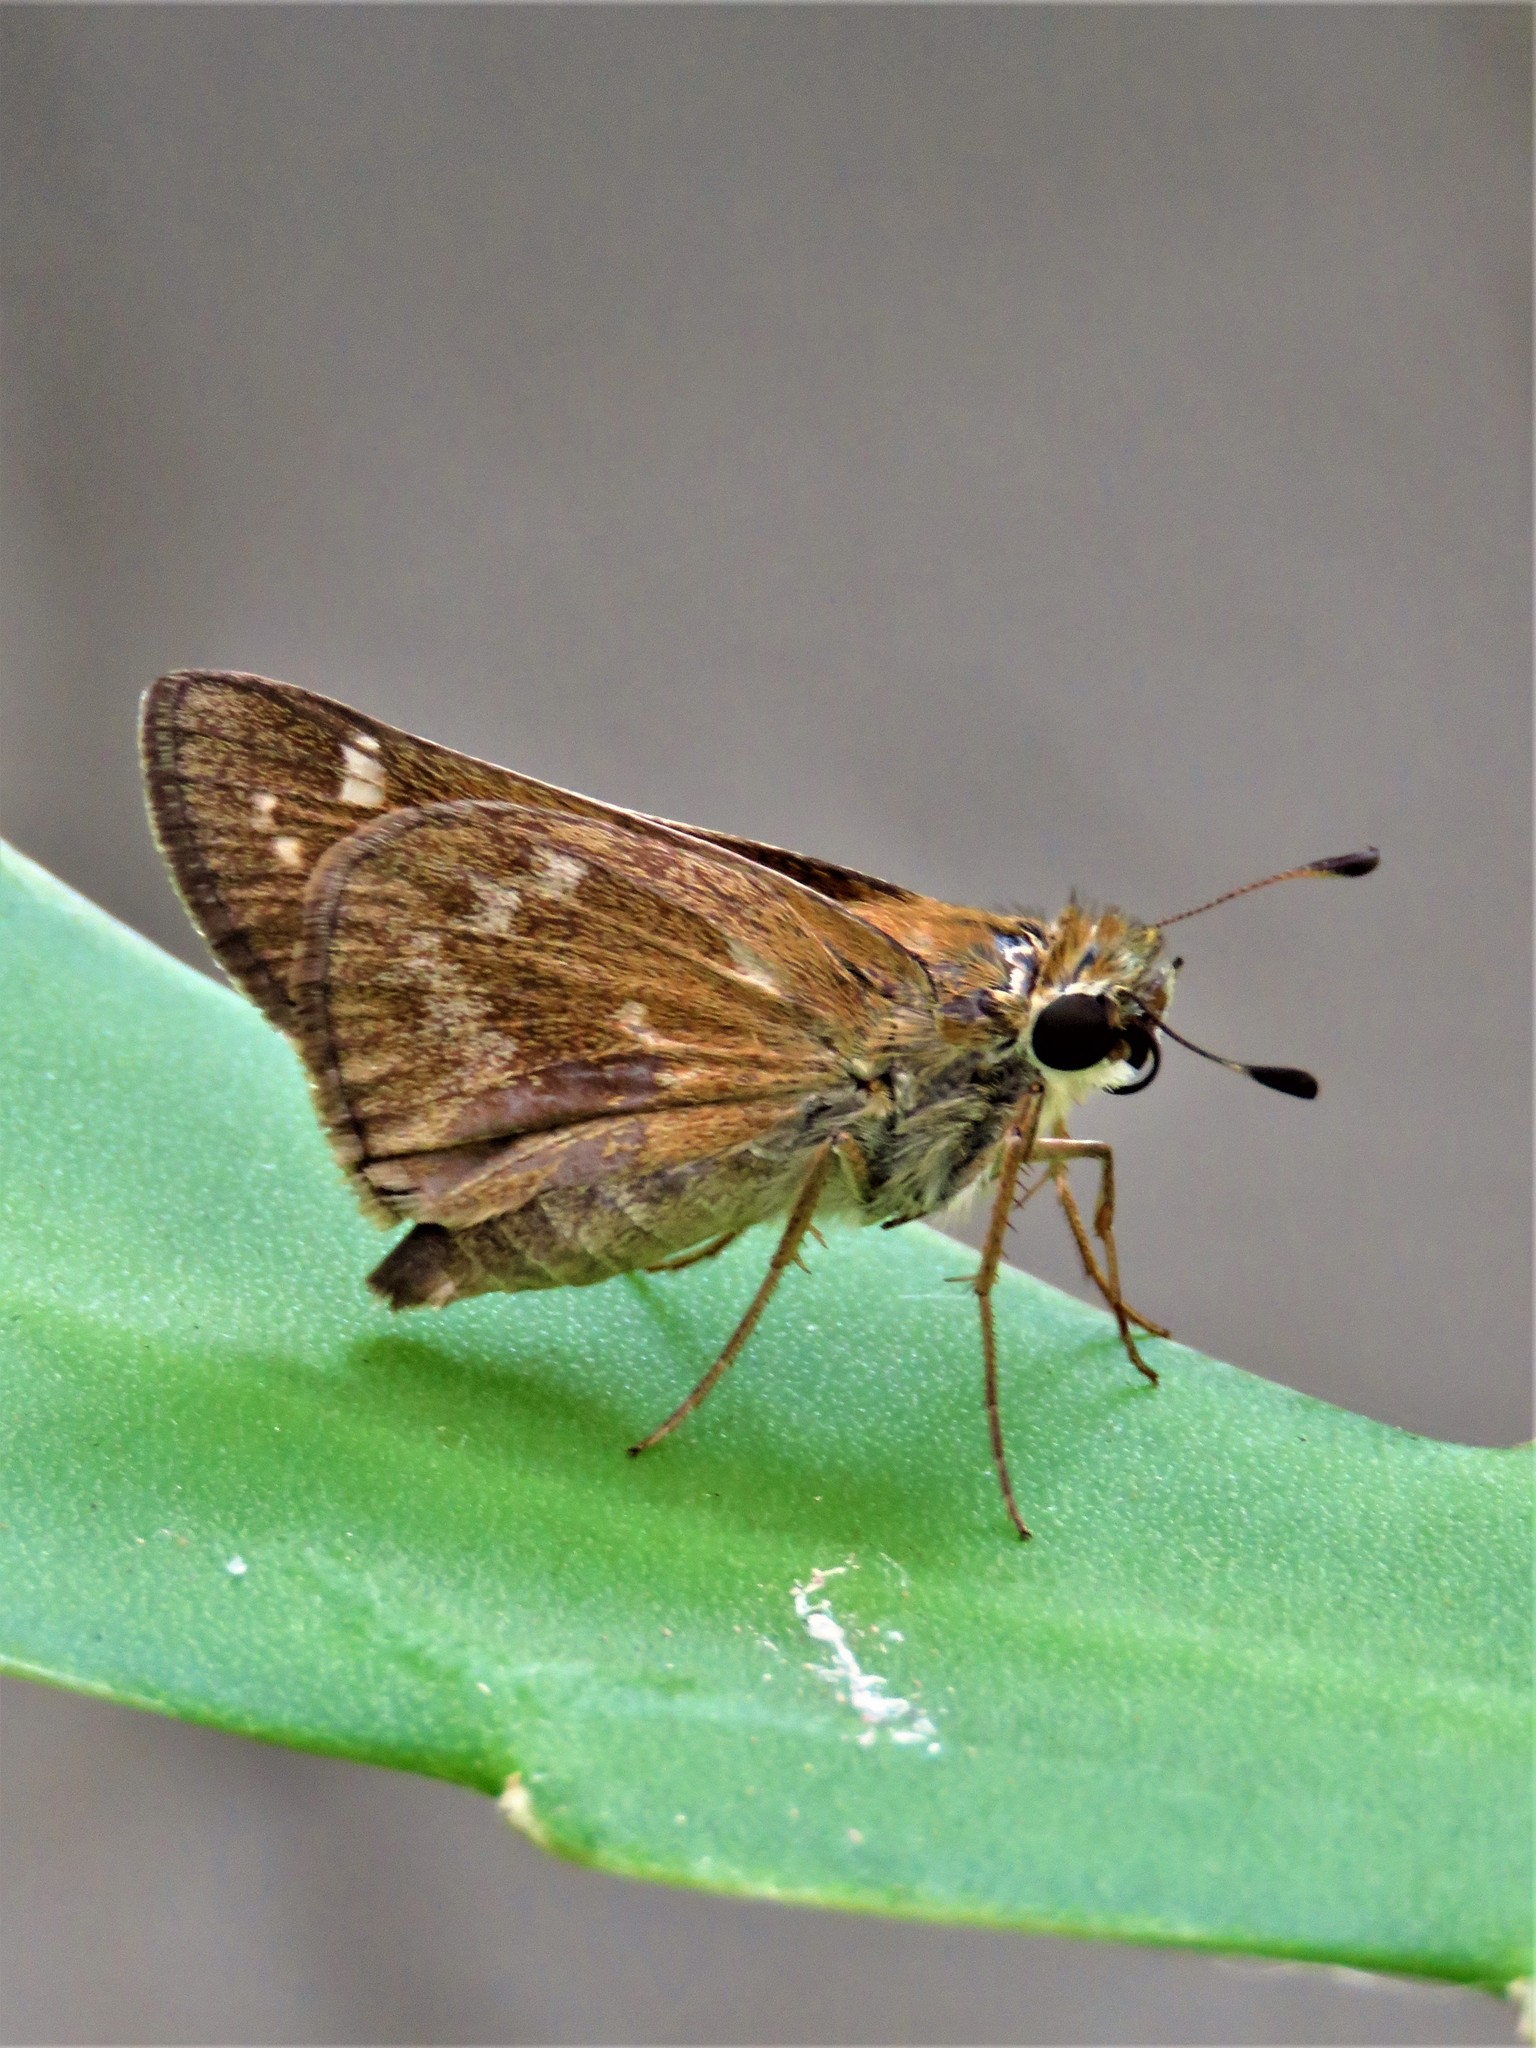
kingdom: Animalia
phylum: Arthropoda
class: Insecta
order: Lepidoptera
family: Hesperiidae
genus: Atalopedes
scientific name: Atalopedes
